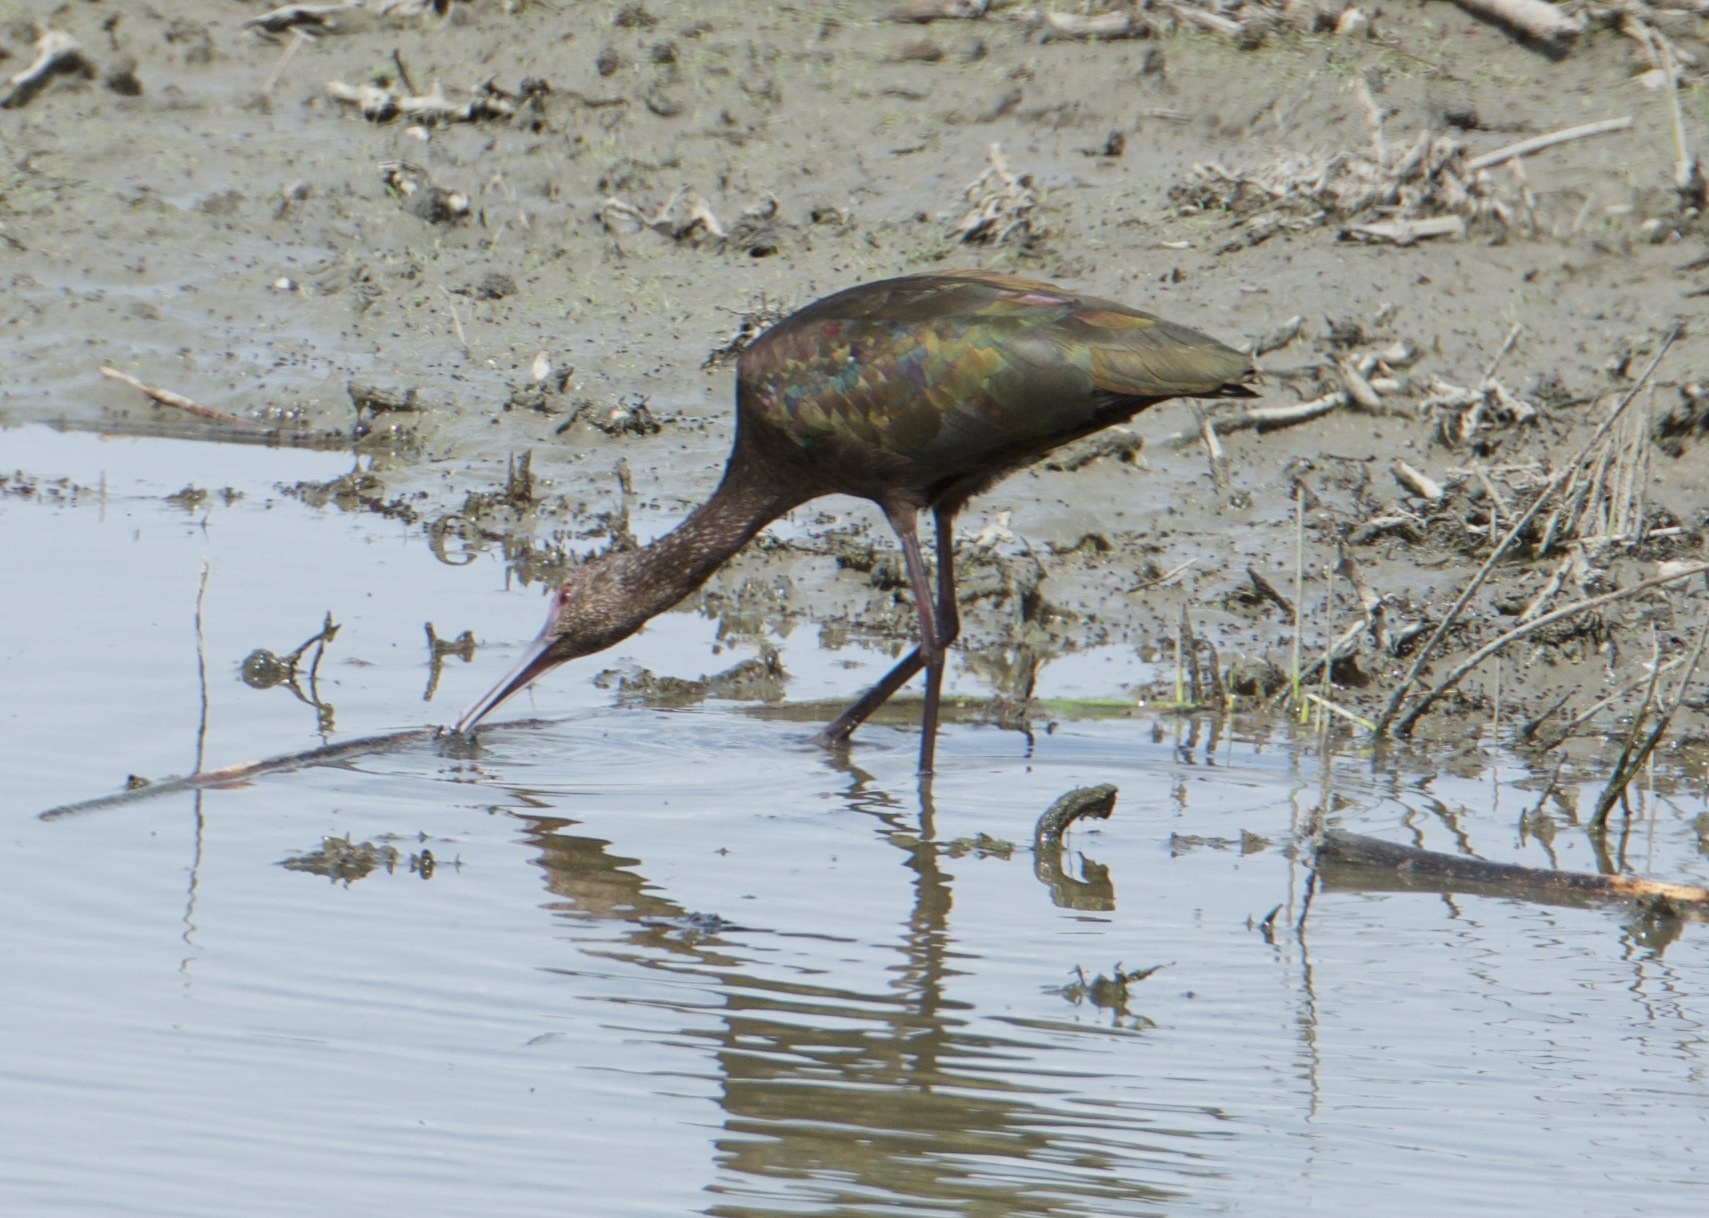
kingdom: Animalia
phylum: Chordata
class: Aves
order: Pelecaniformes
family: Threskiornithidae
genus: Plegadis
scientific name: Plegadis chihi
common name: White-faced ibis
